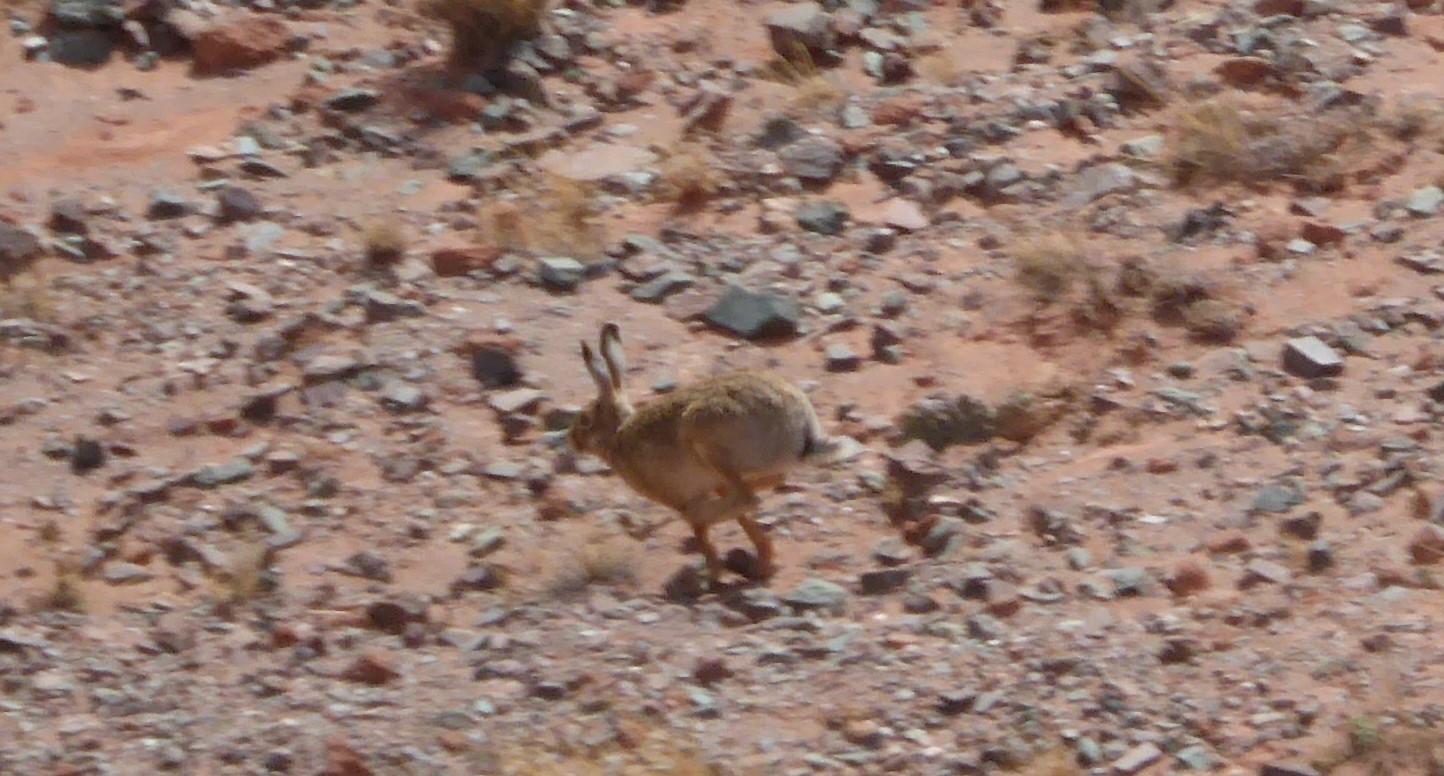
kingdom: Animalia
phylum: Chordata
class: Mammalia
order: Lagomorpha
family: Leporidae
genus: Lepus
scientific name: Lepus europaeus
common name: European hare
